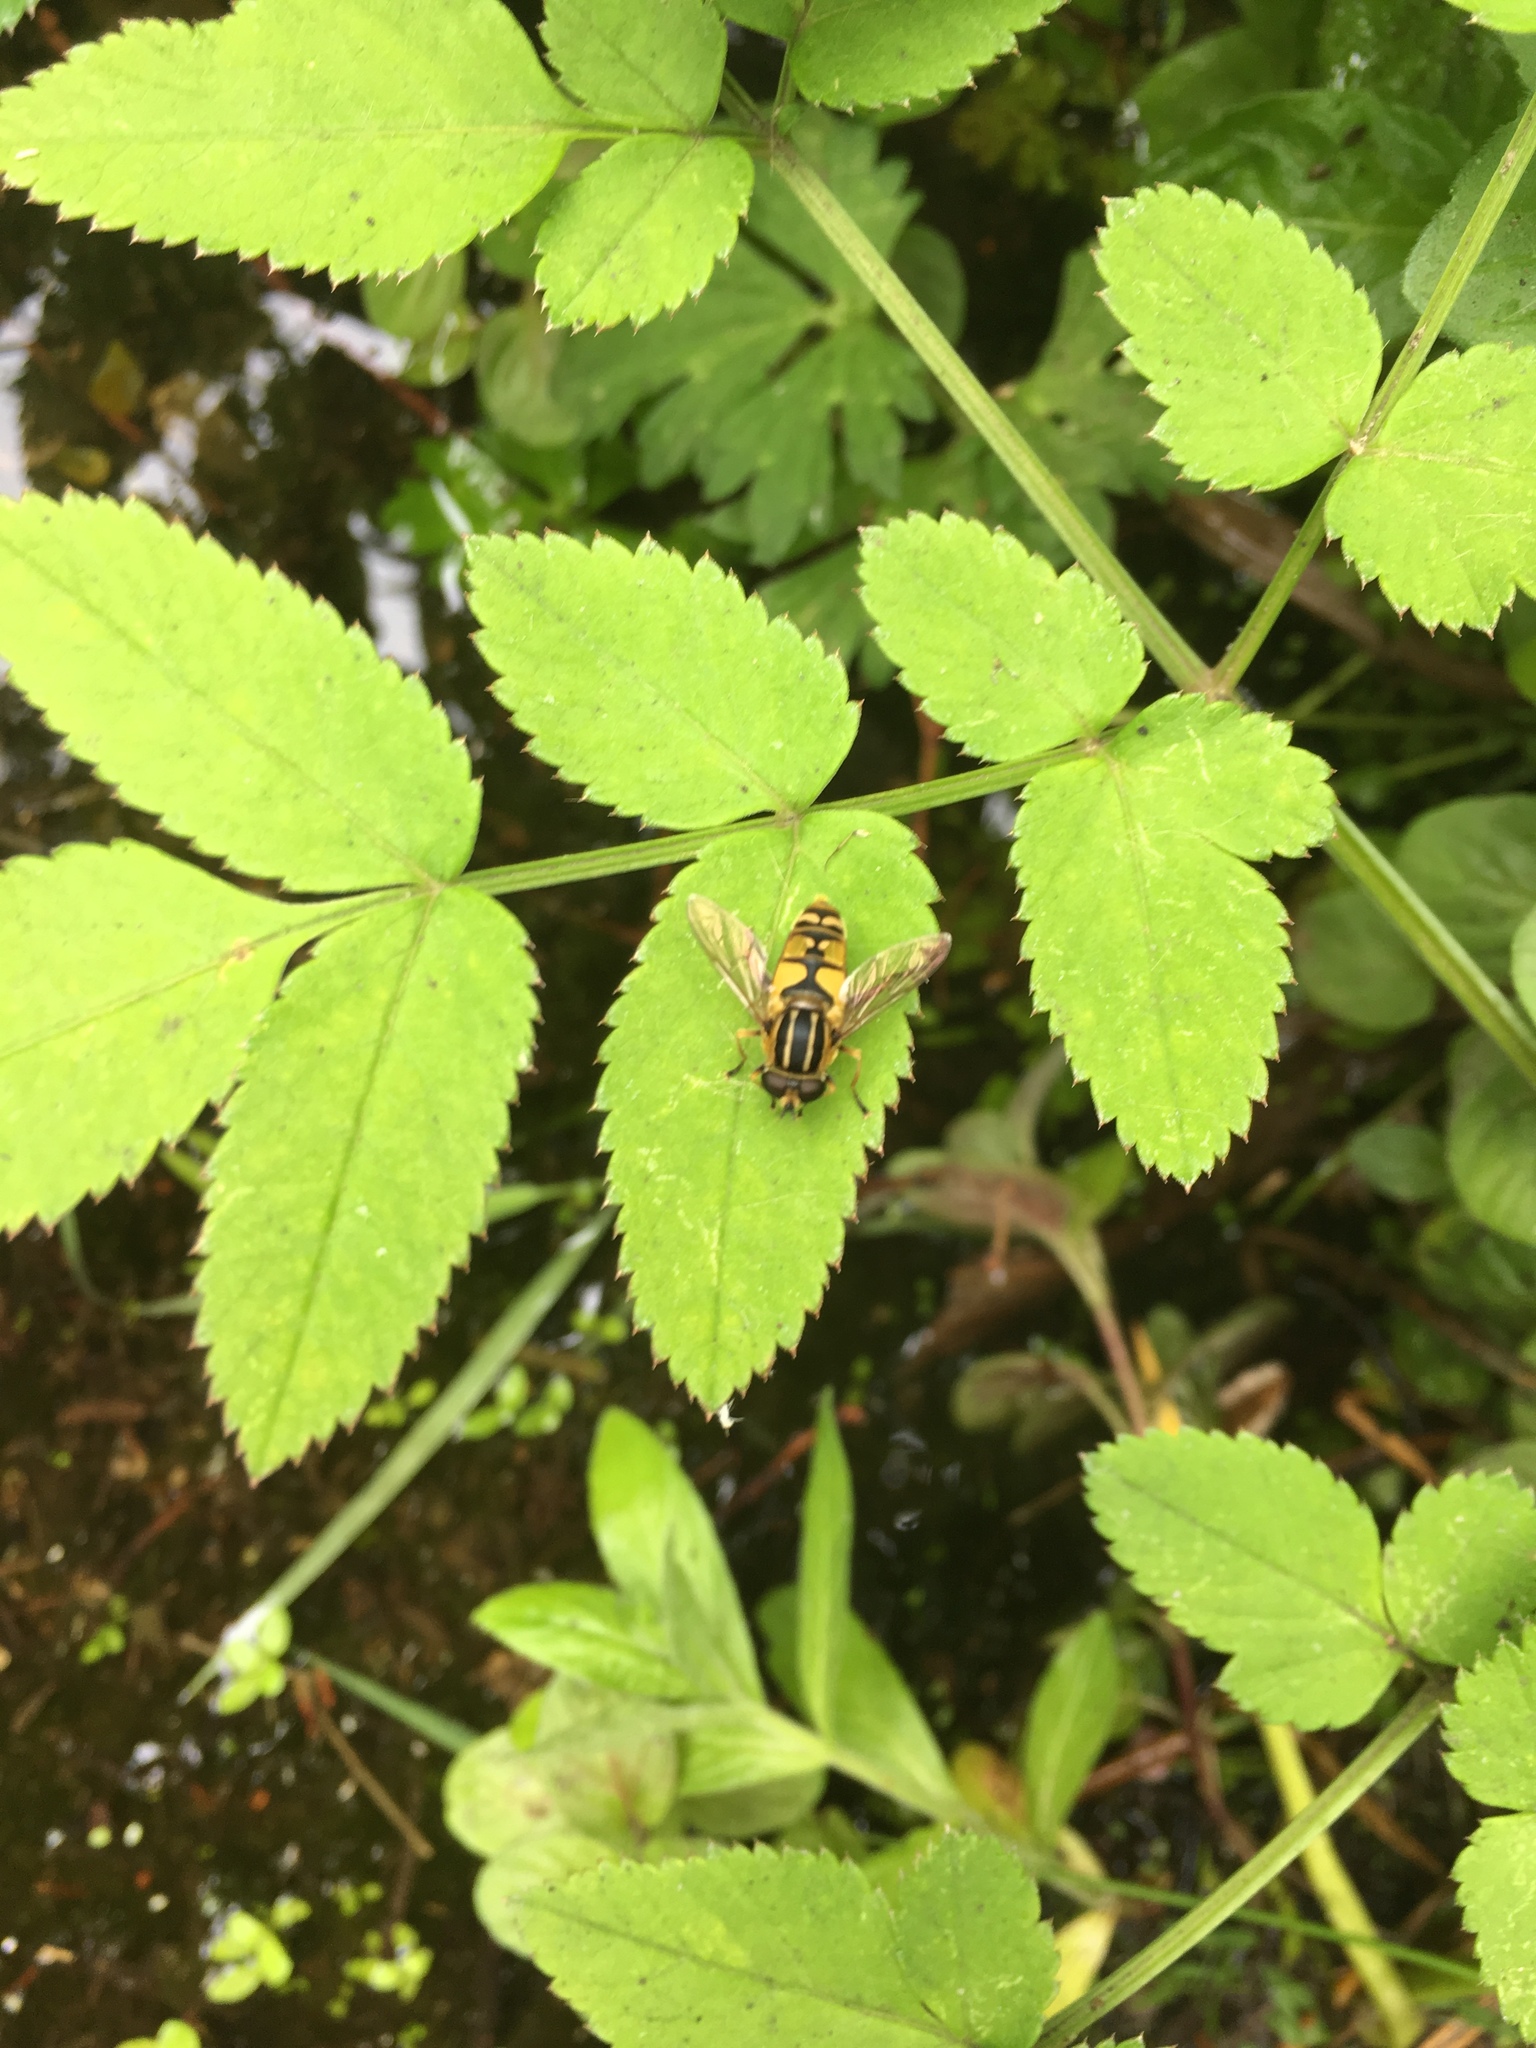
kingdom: Animalia
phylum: Arthropoda
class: Insecta
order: Diptera
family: Syrphidae
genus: Helophilus
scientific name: Helophilus pendulus
